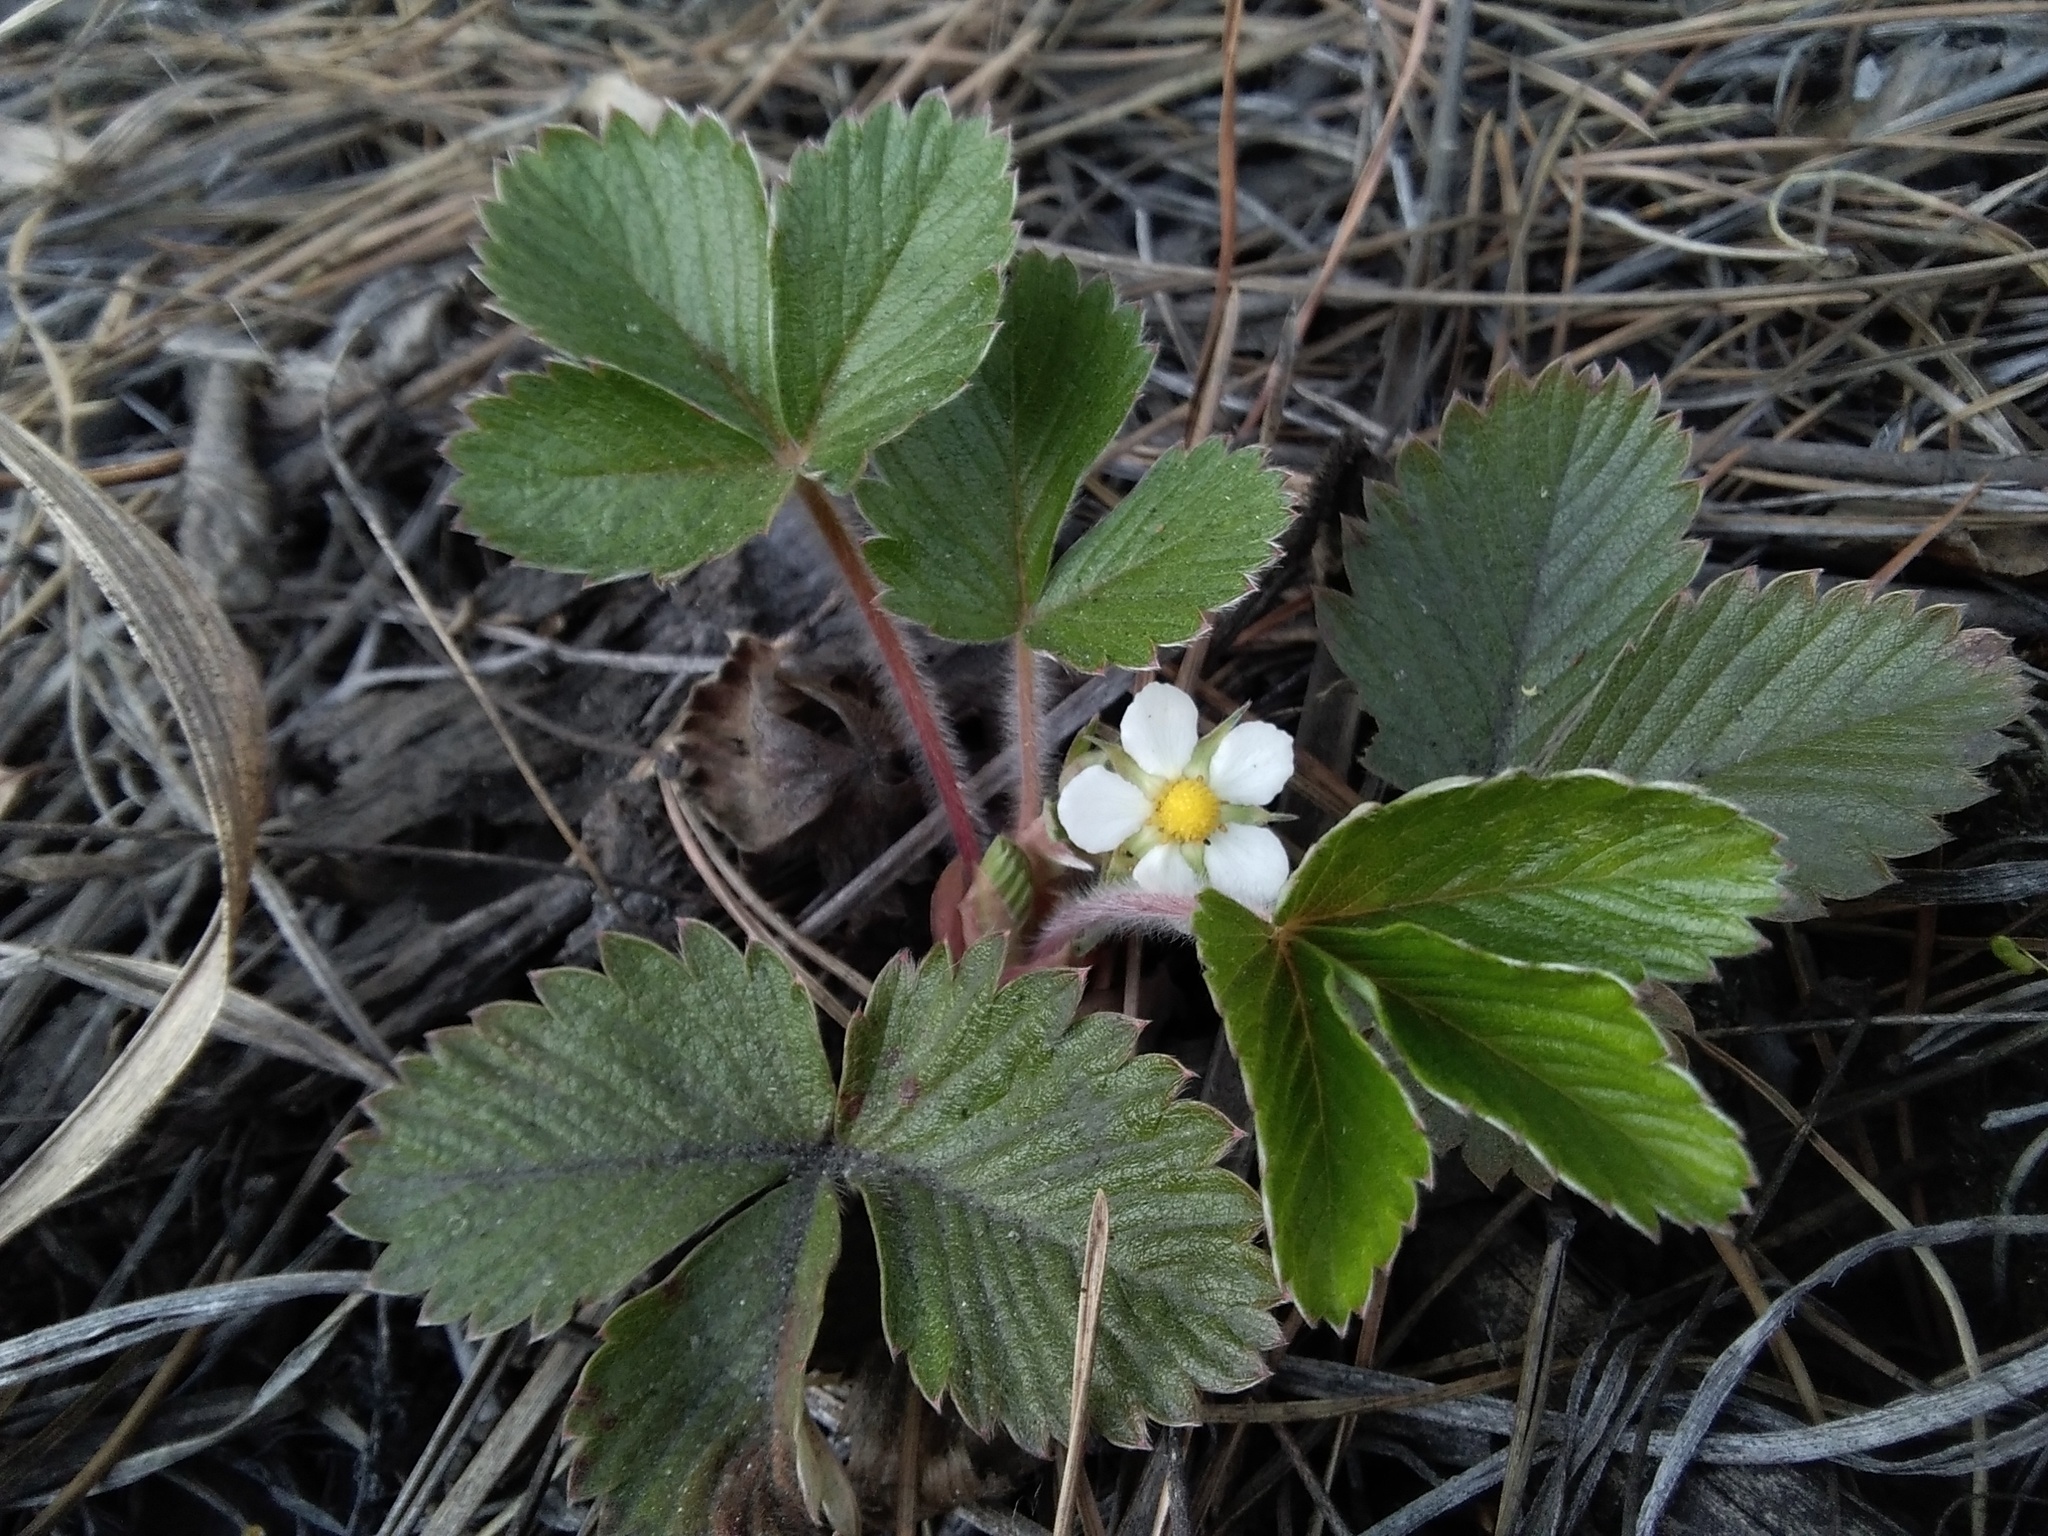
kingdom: Plantae
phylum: Tracheophyta
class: Magnoliopsida
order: Rosales
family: Rosaceae
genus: Fragaria
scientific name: Fragaria vesca
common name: Wild strawberry
